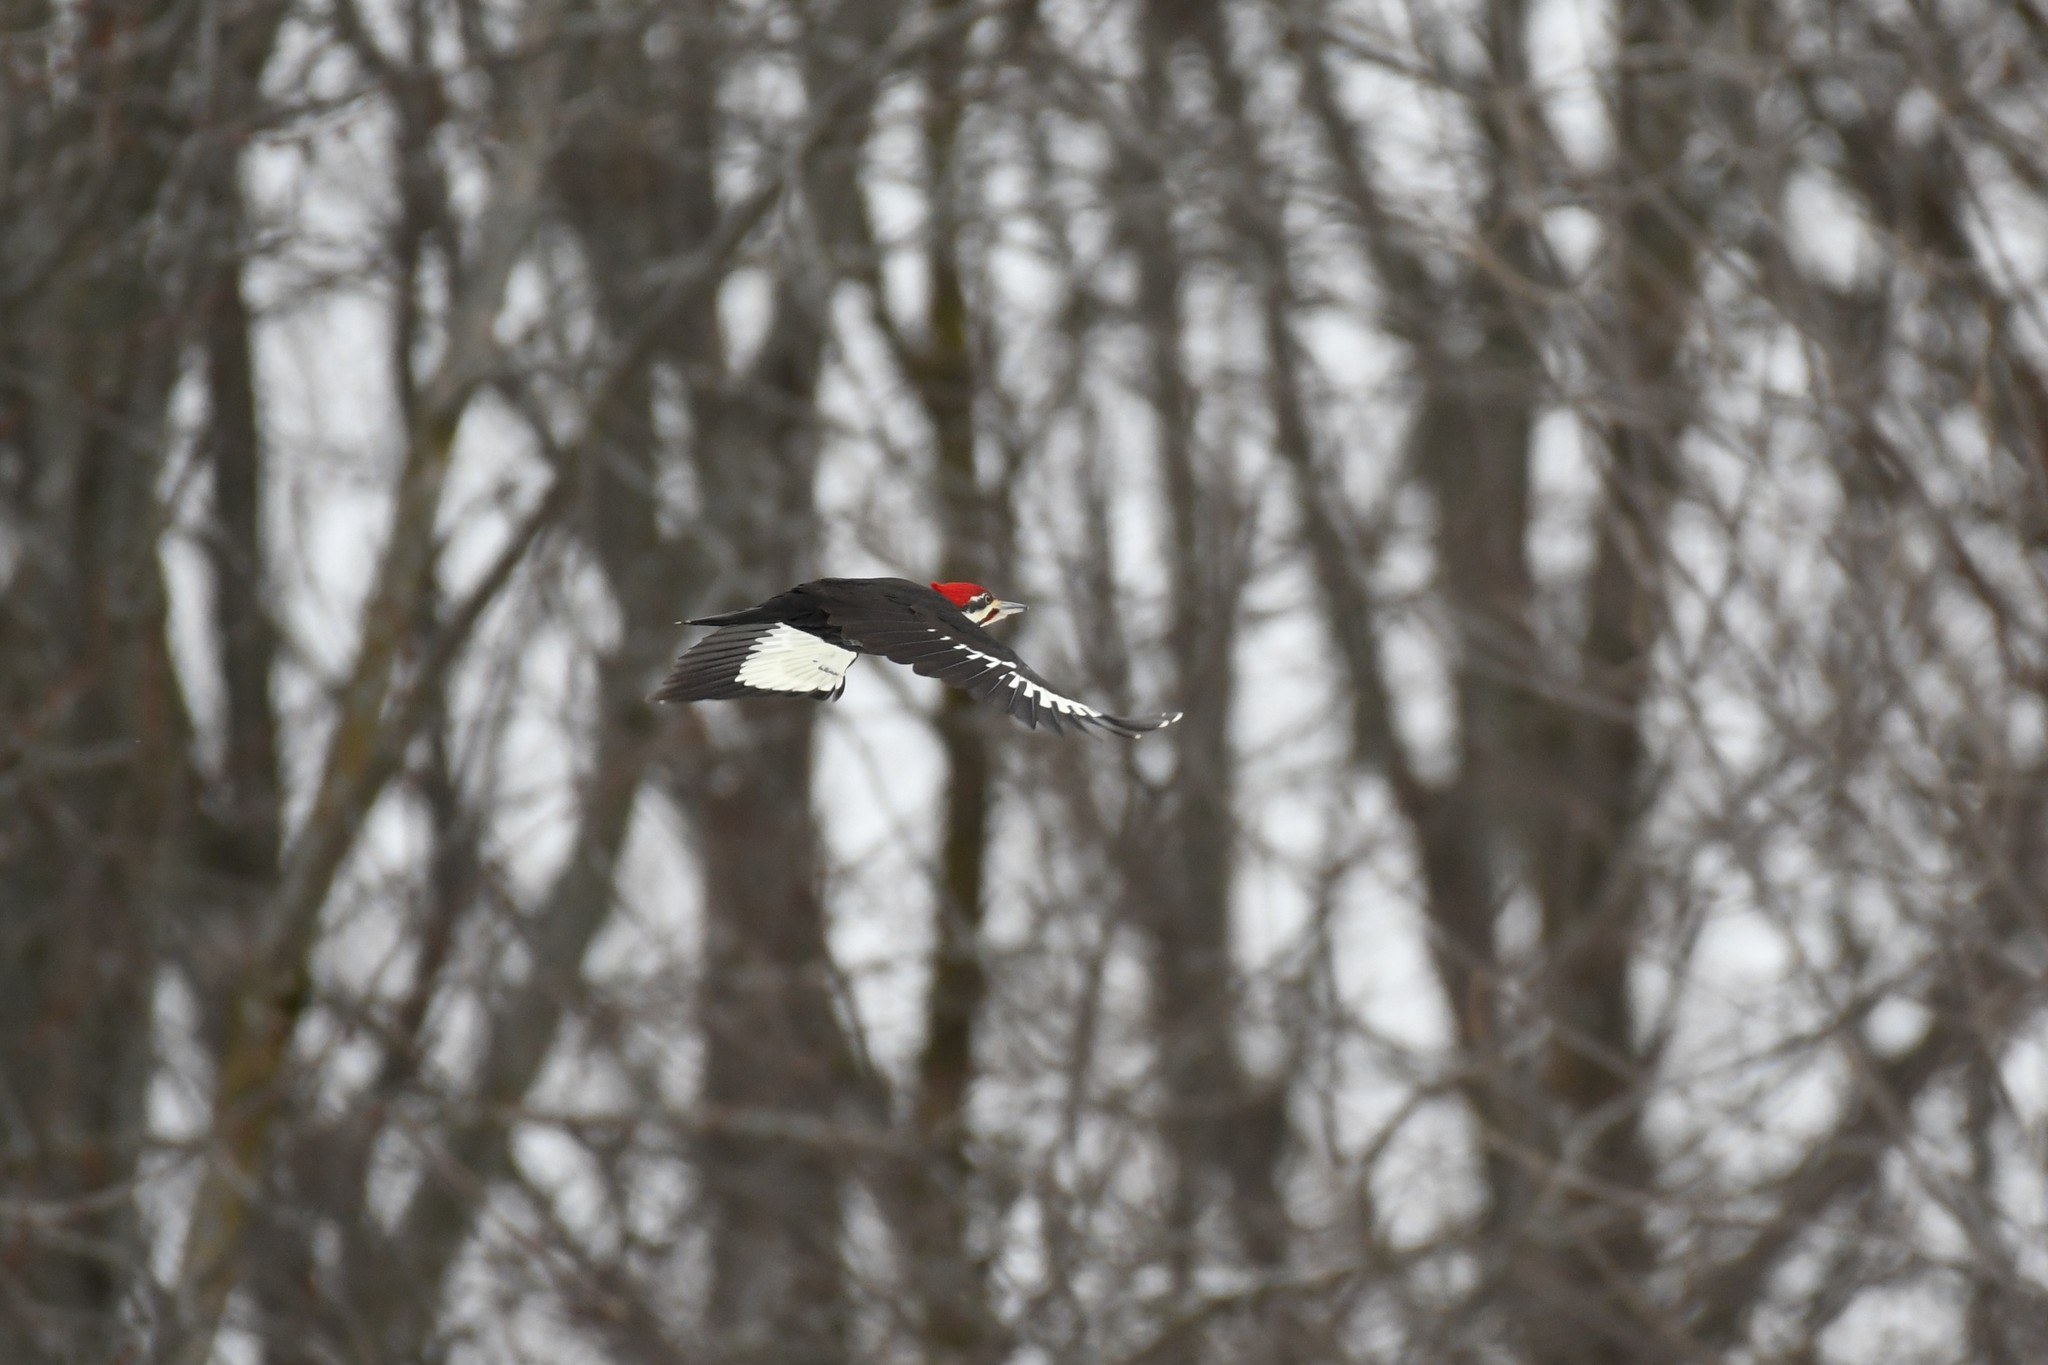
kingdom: Animalia
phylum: Chordata
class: Aves
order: Piciformes
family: Picidae
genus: Dryocopus
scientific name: Dryocopus pileatus
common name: Pileated woodpecker
